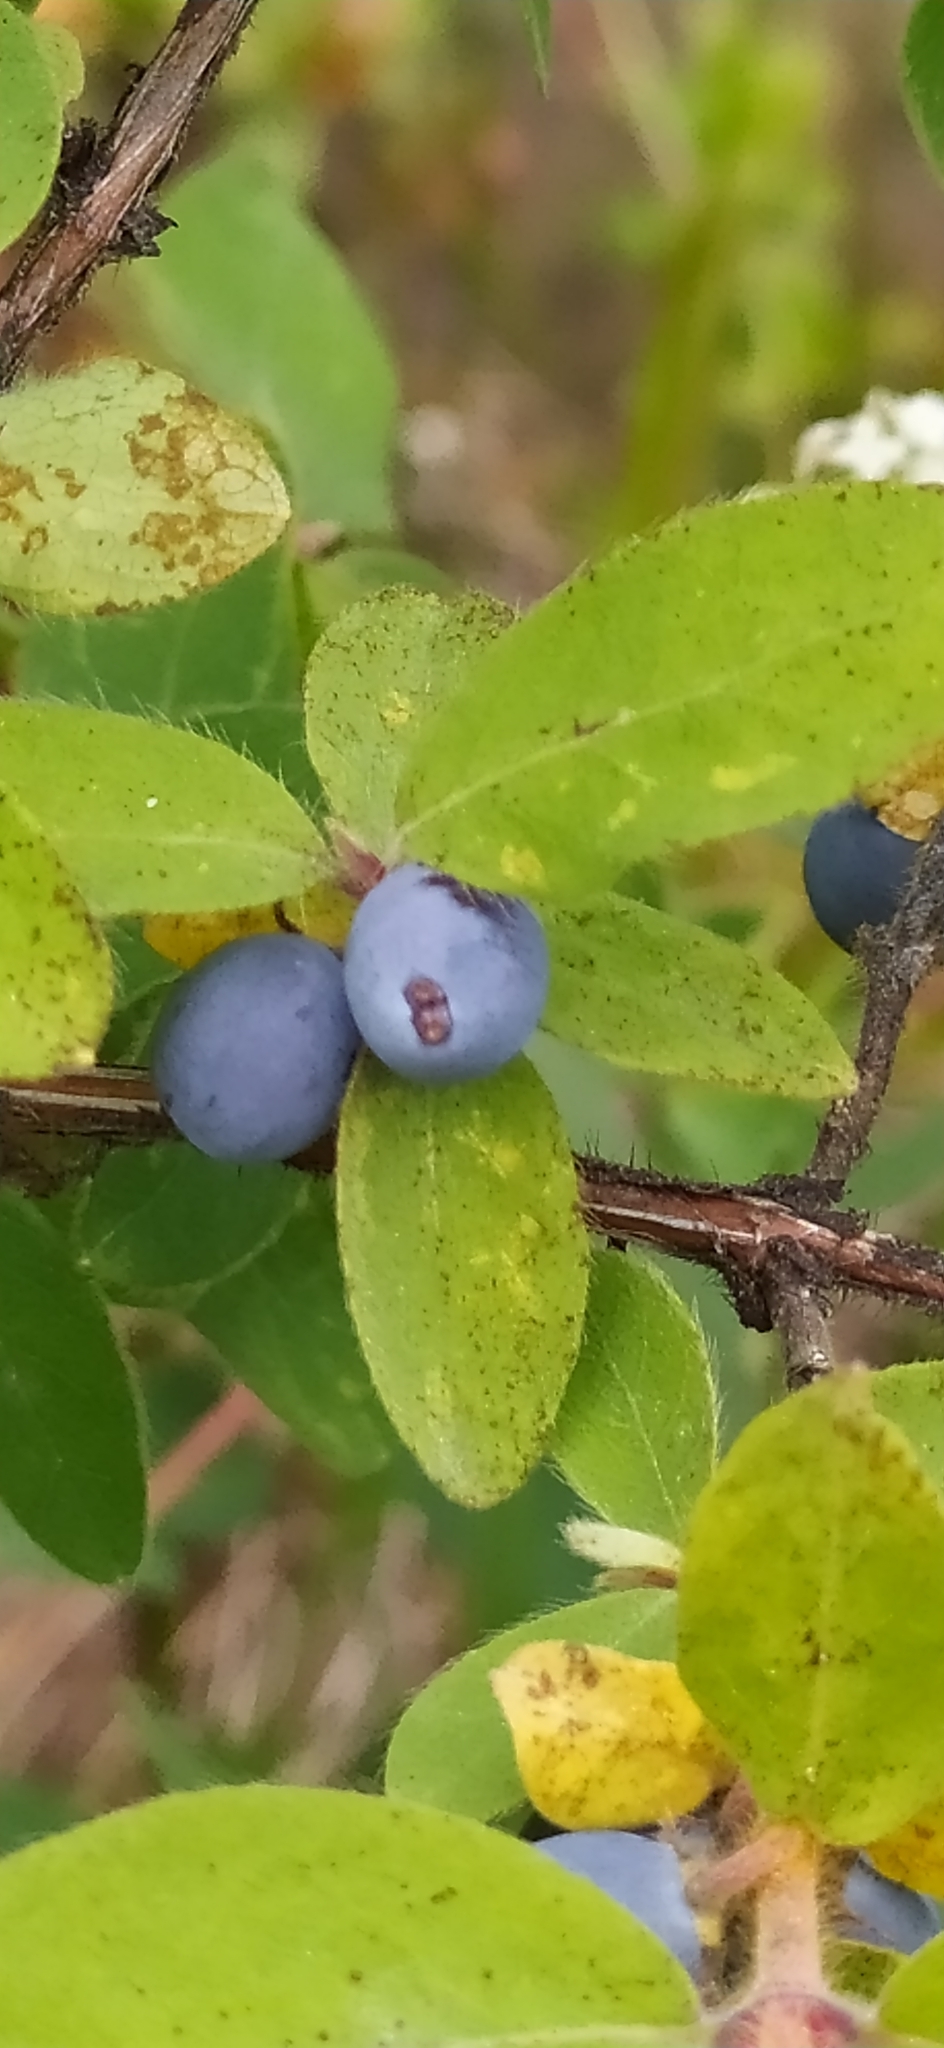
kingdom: Plantae
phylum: Tracheophyta
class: Magnoliopsida
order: Dipsacales
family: Caprifoliaceae
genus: Lonicera
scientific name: Lonicera caerulea
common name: Blue honeysuckle
